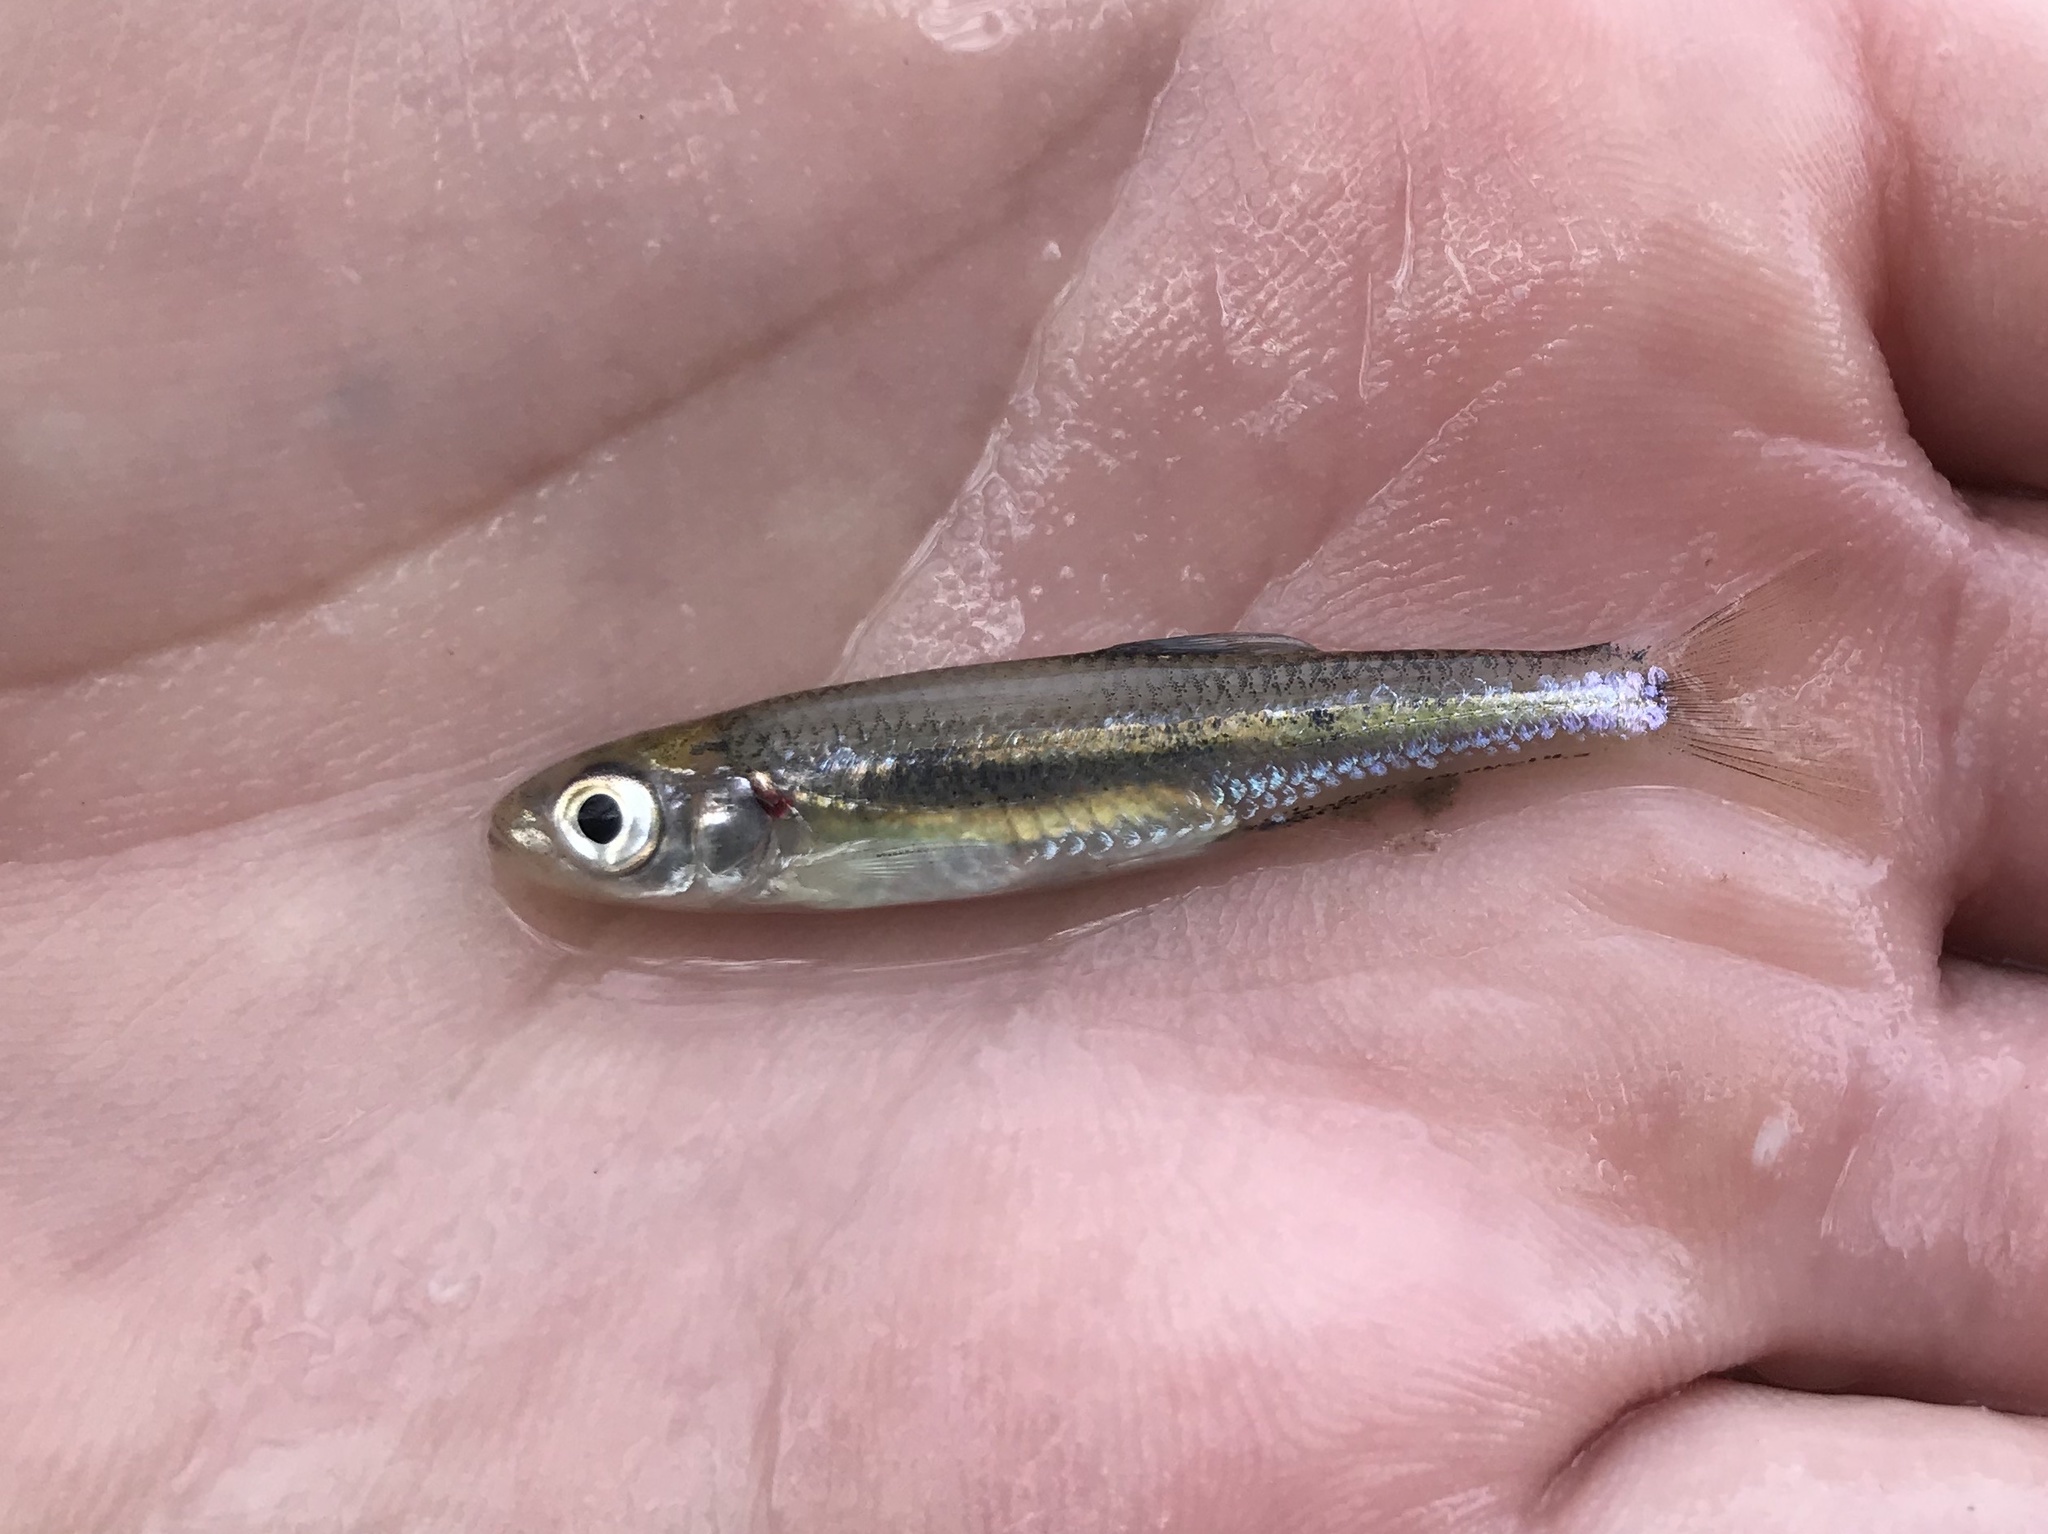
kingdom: Animalia
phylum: Chordata
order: Cypriniformes
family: Cyprinidae
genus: Notropis
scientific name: Notropis amabilis
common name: Texas shiner
